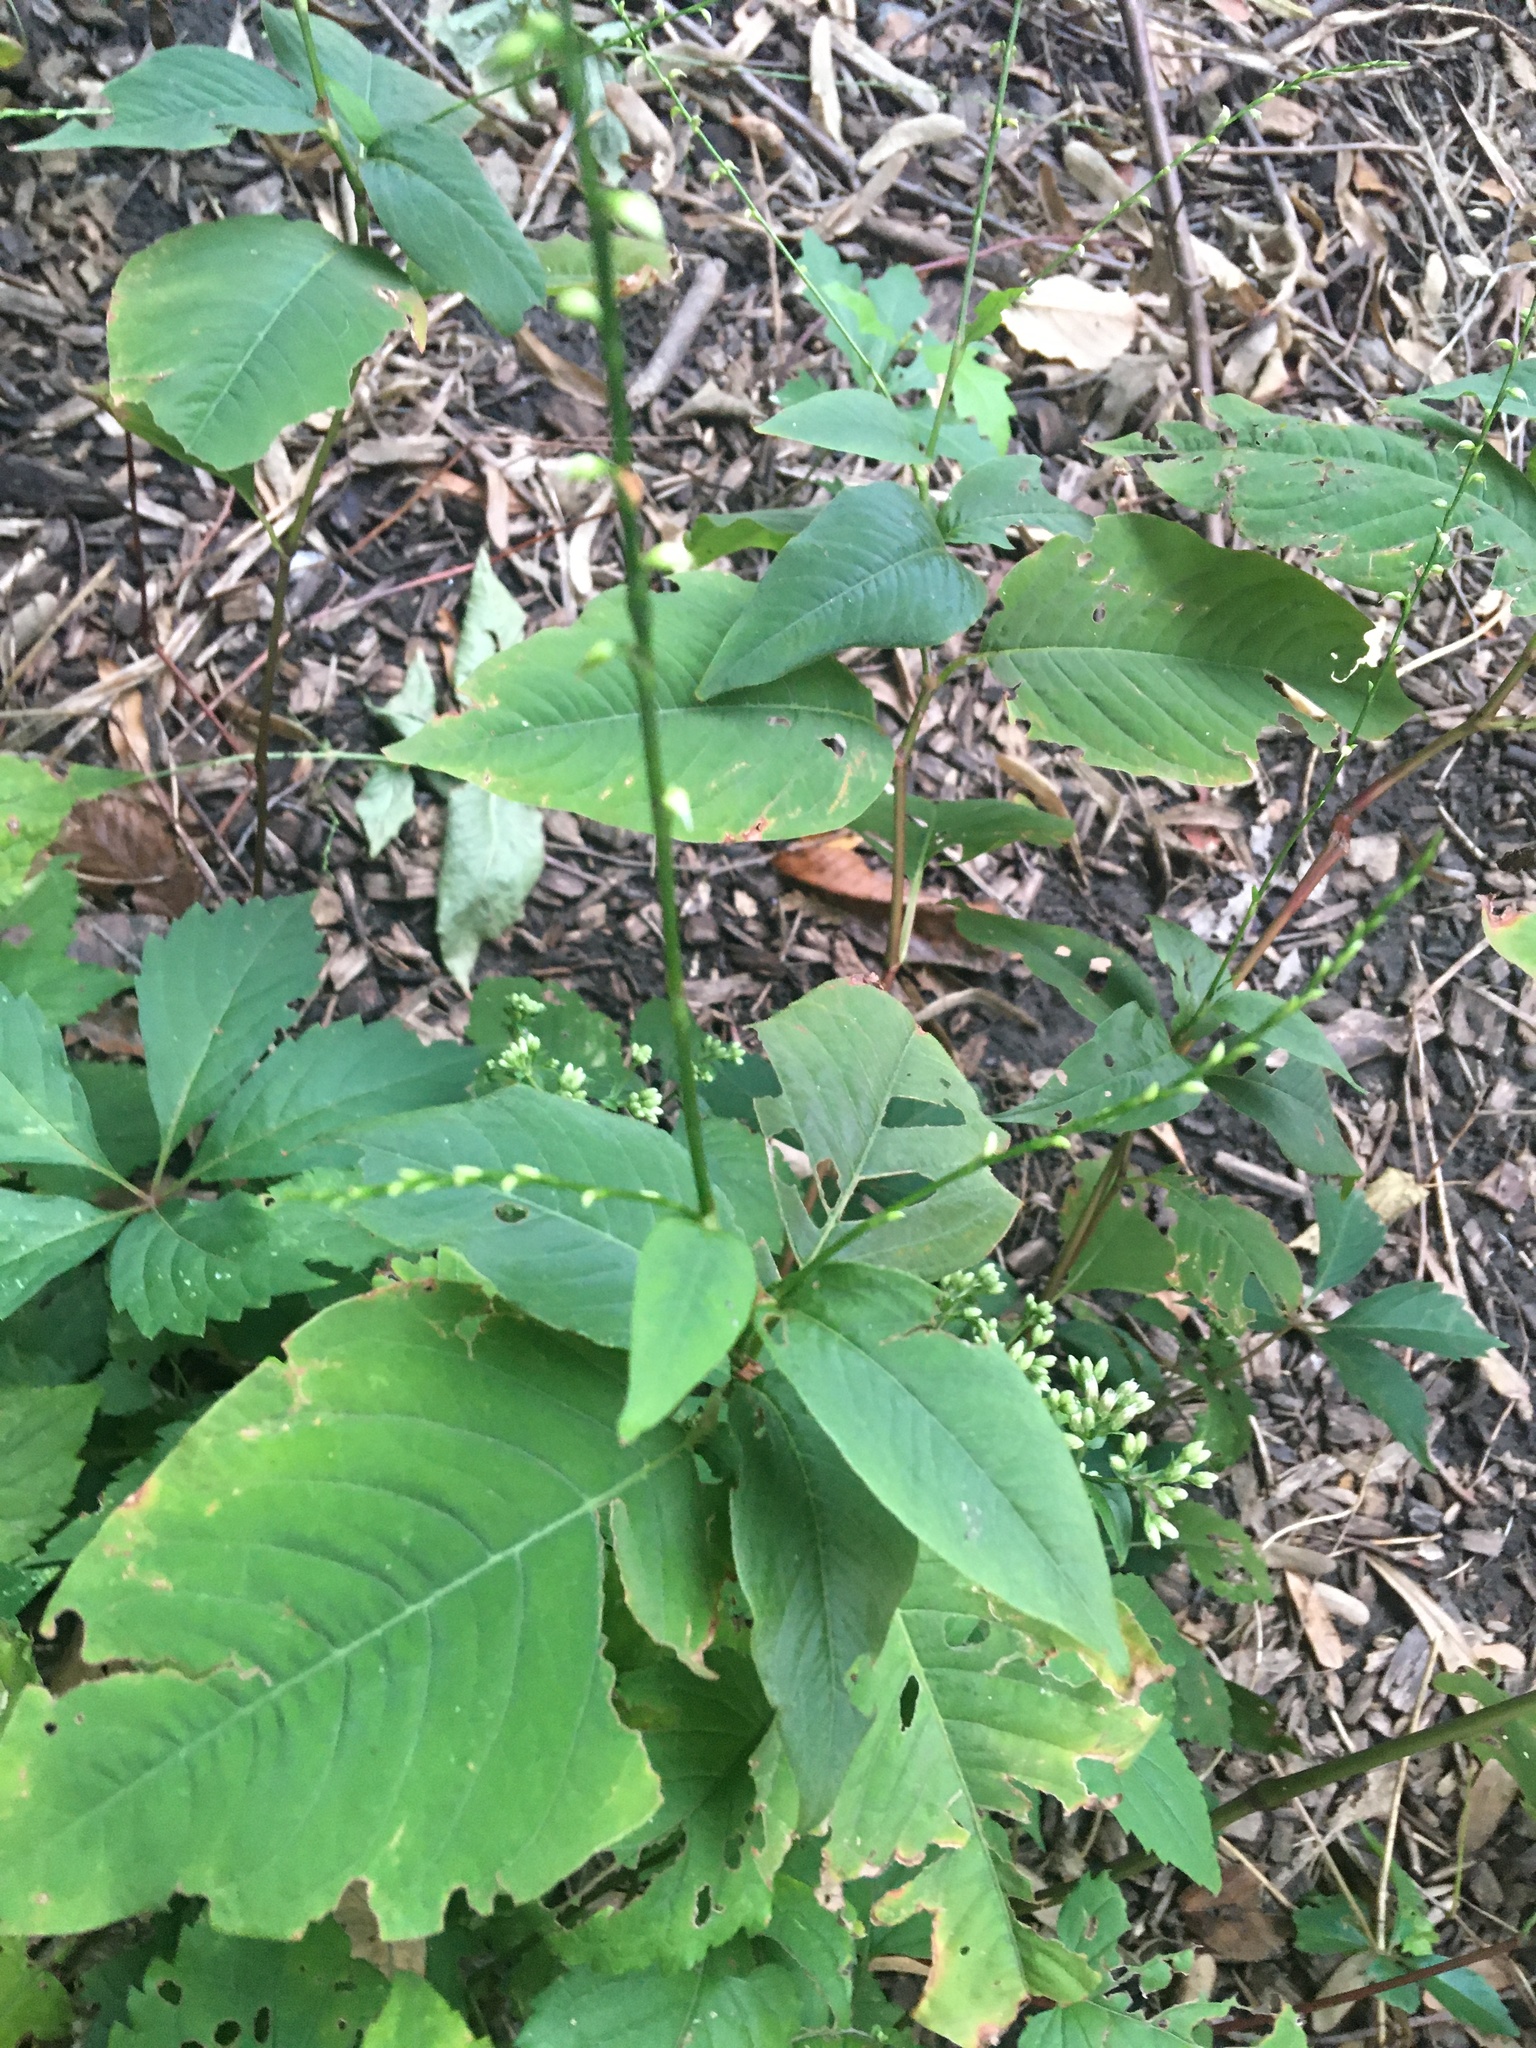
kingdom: Plantae
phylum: Tracheophyta
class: Magnoliopsida
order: Caryophyllales
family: Polygonaceae
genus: Persicaria
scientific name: Persicaria virginiana
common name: Jumpseed
